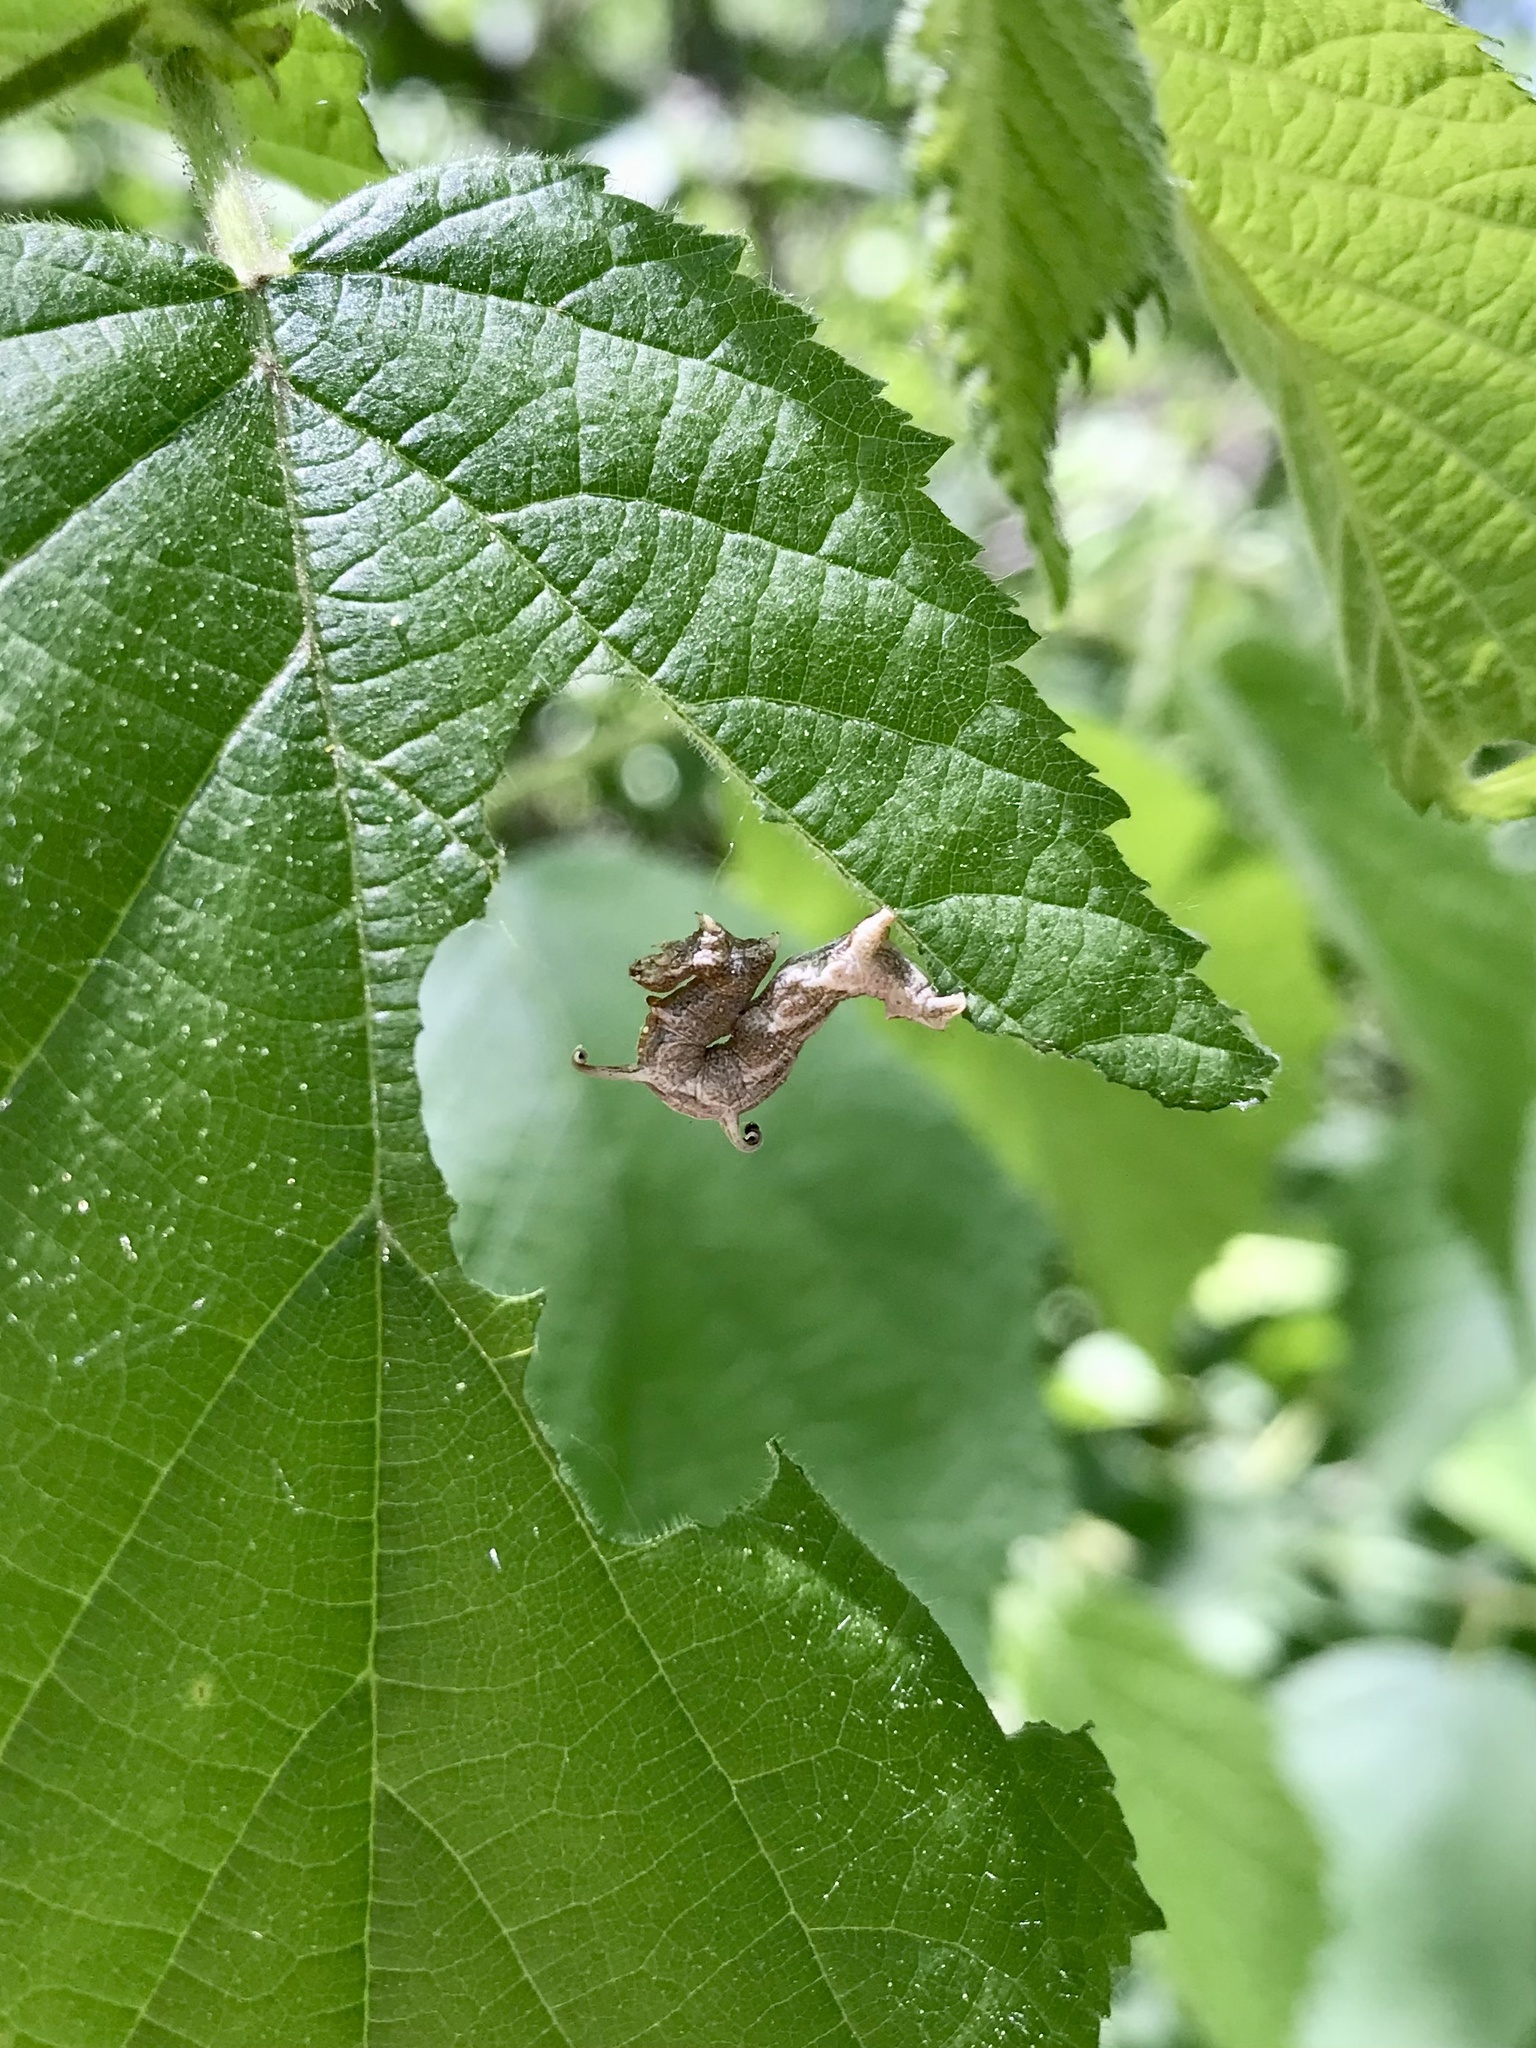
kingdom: Animalia
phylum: Arthropoda
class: Insecta
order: Lepidoptera
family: Geometridae
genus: Nematocampa
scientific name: Nematocampa resistaria
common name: Horned spanworm moth
